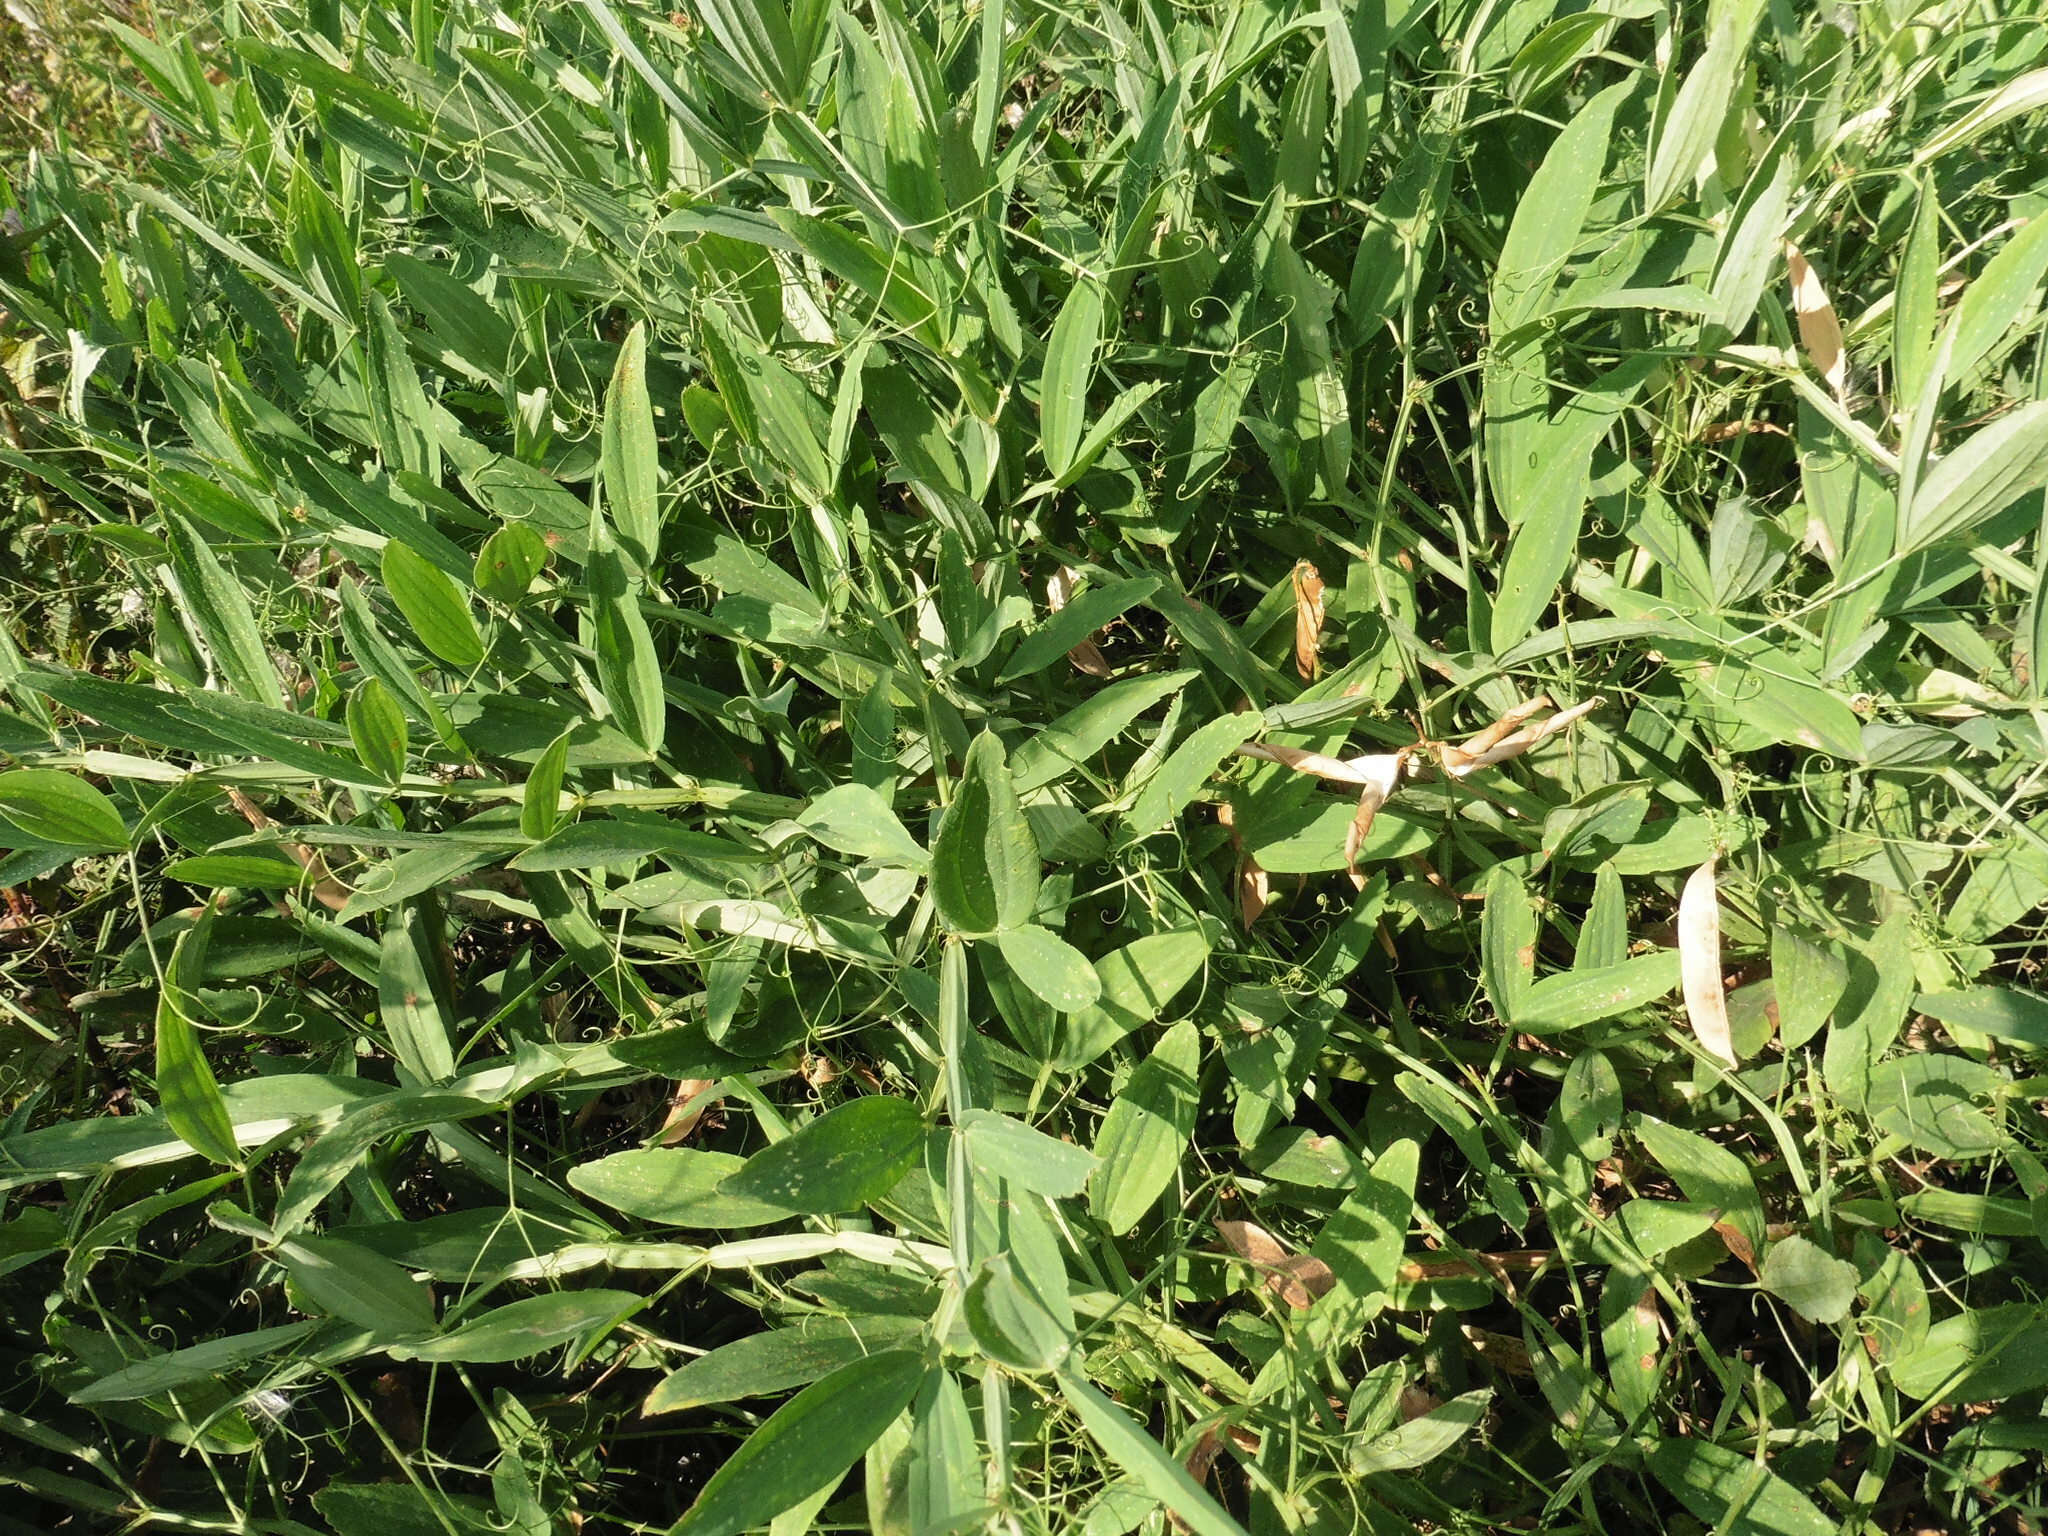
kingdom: Plantae
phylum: Tracheophyta
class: Magnoliopsida
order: Fabales
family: Fabaceae
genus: Lathyrus
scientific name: Lathyrus sylvestris
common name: Flat pea
